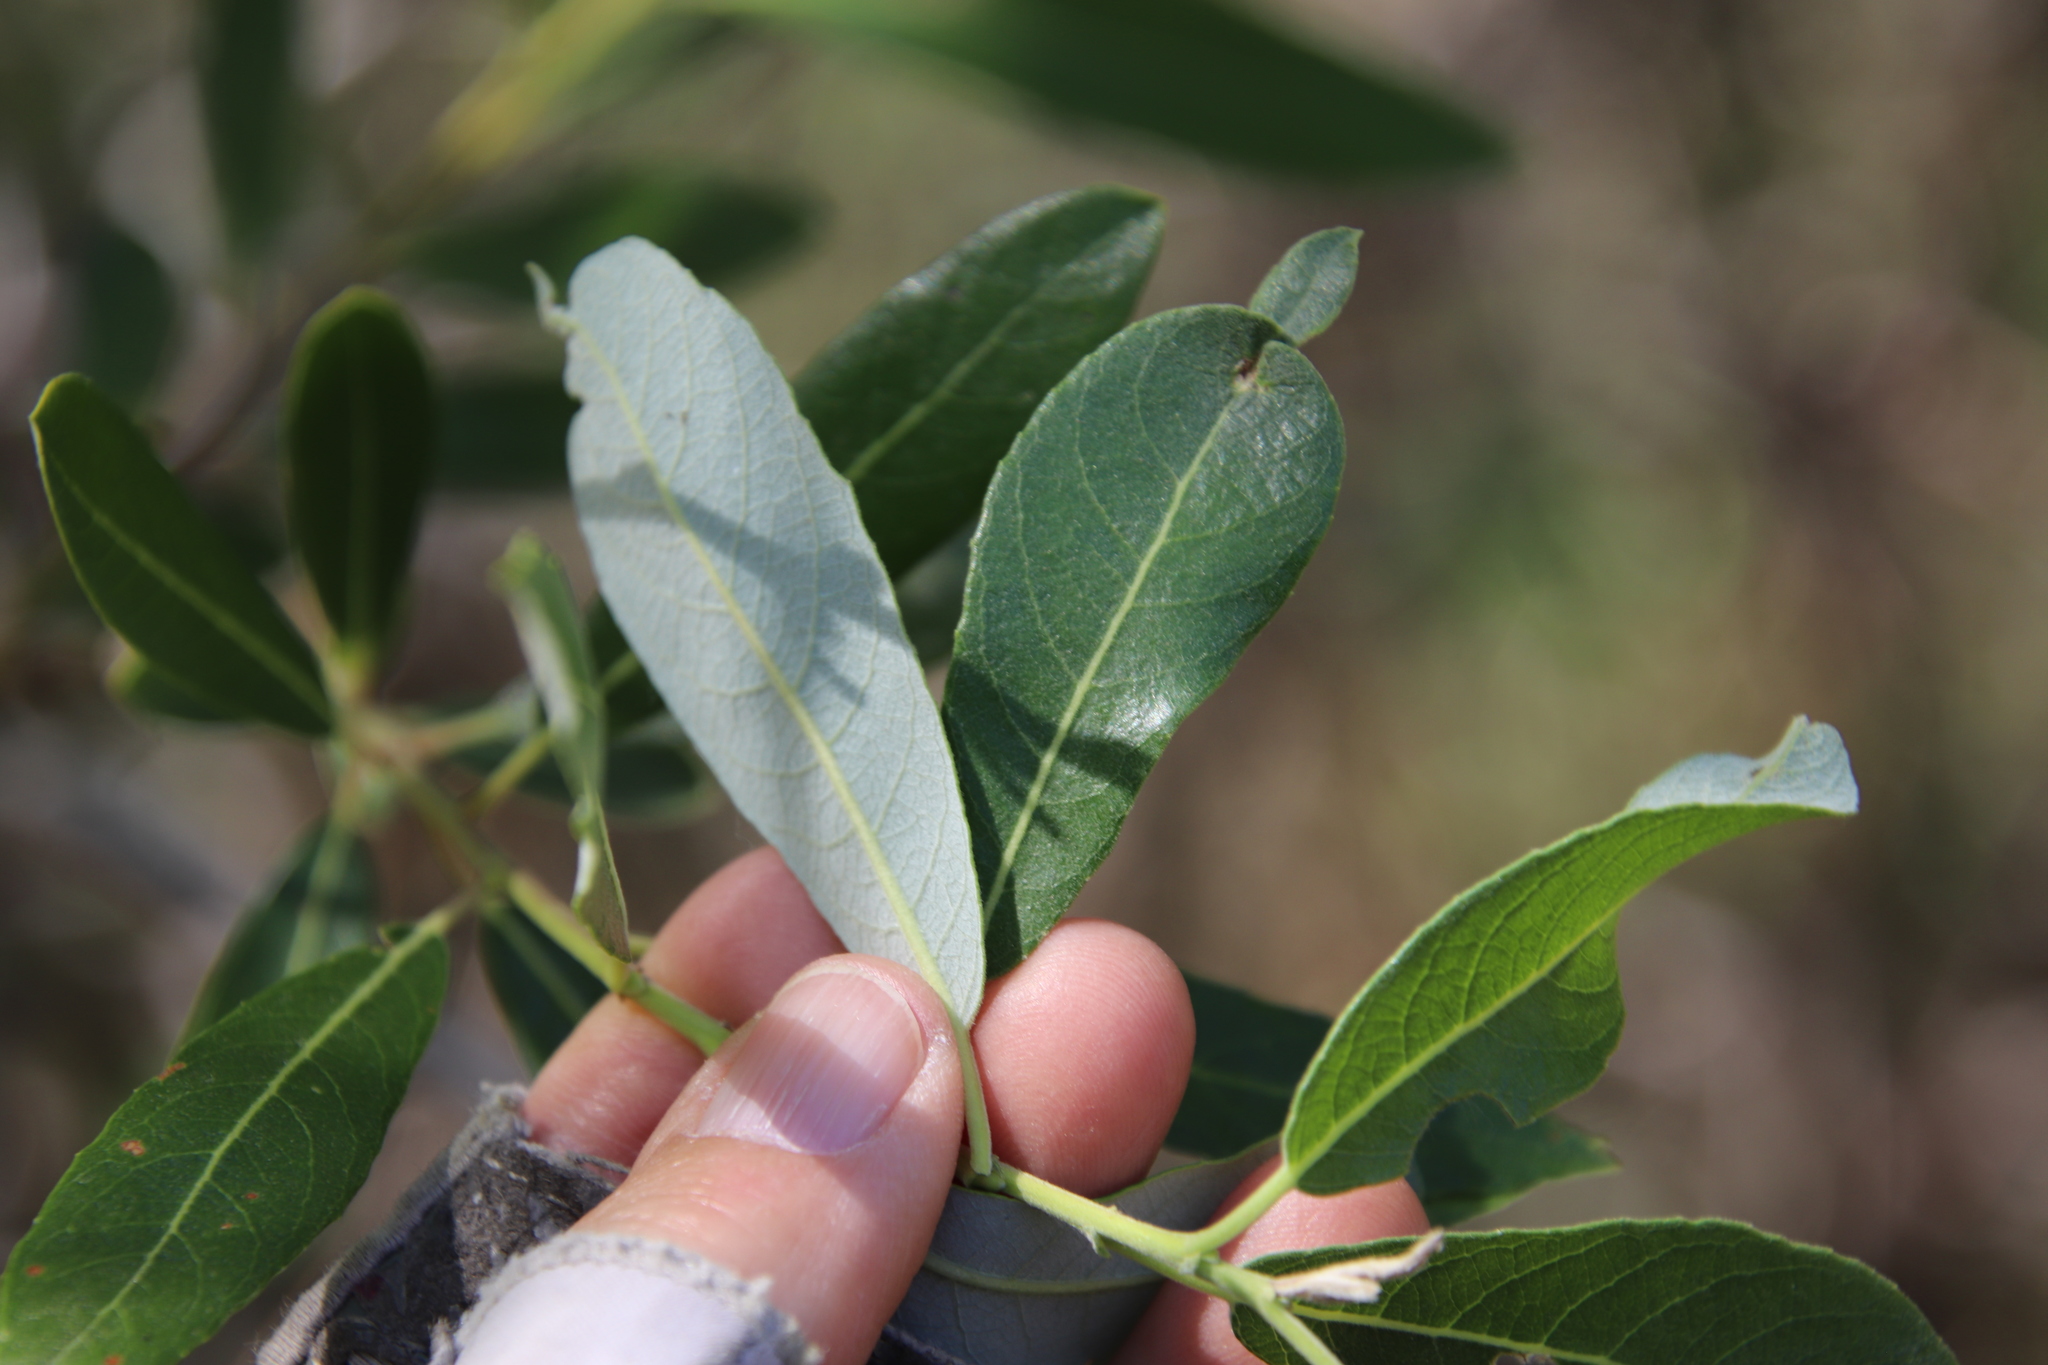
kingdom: Plantae
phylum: Tracheophyta
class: Magnoliopsida
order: Malpighiales
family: Salicaceae
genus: Salix
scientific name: Salix lasiolepis
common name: Arroyo willow
